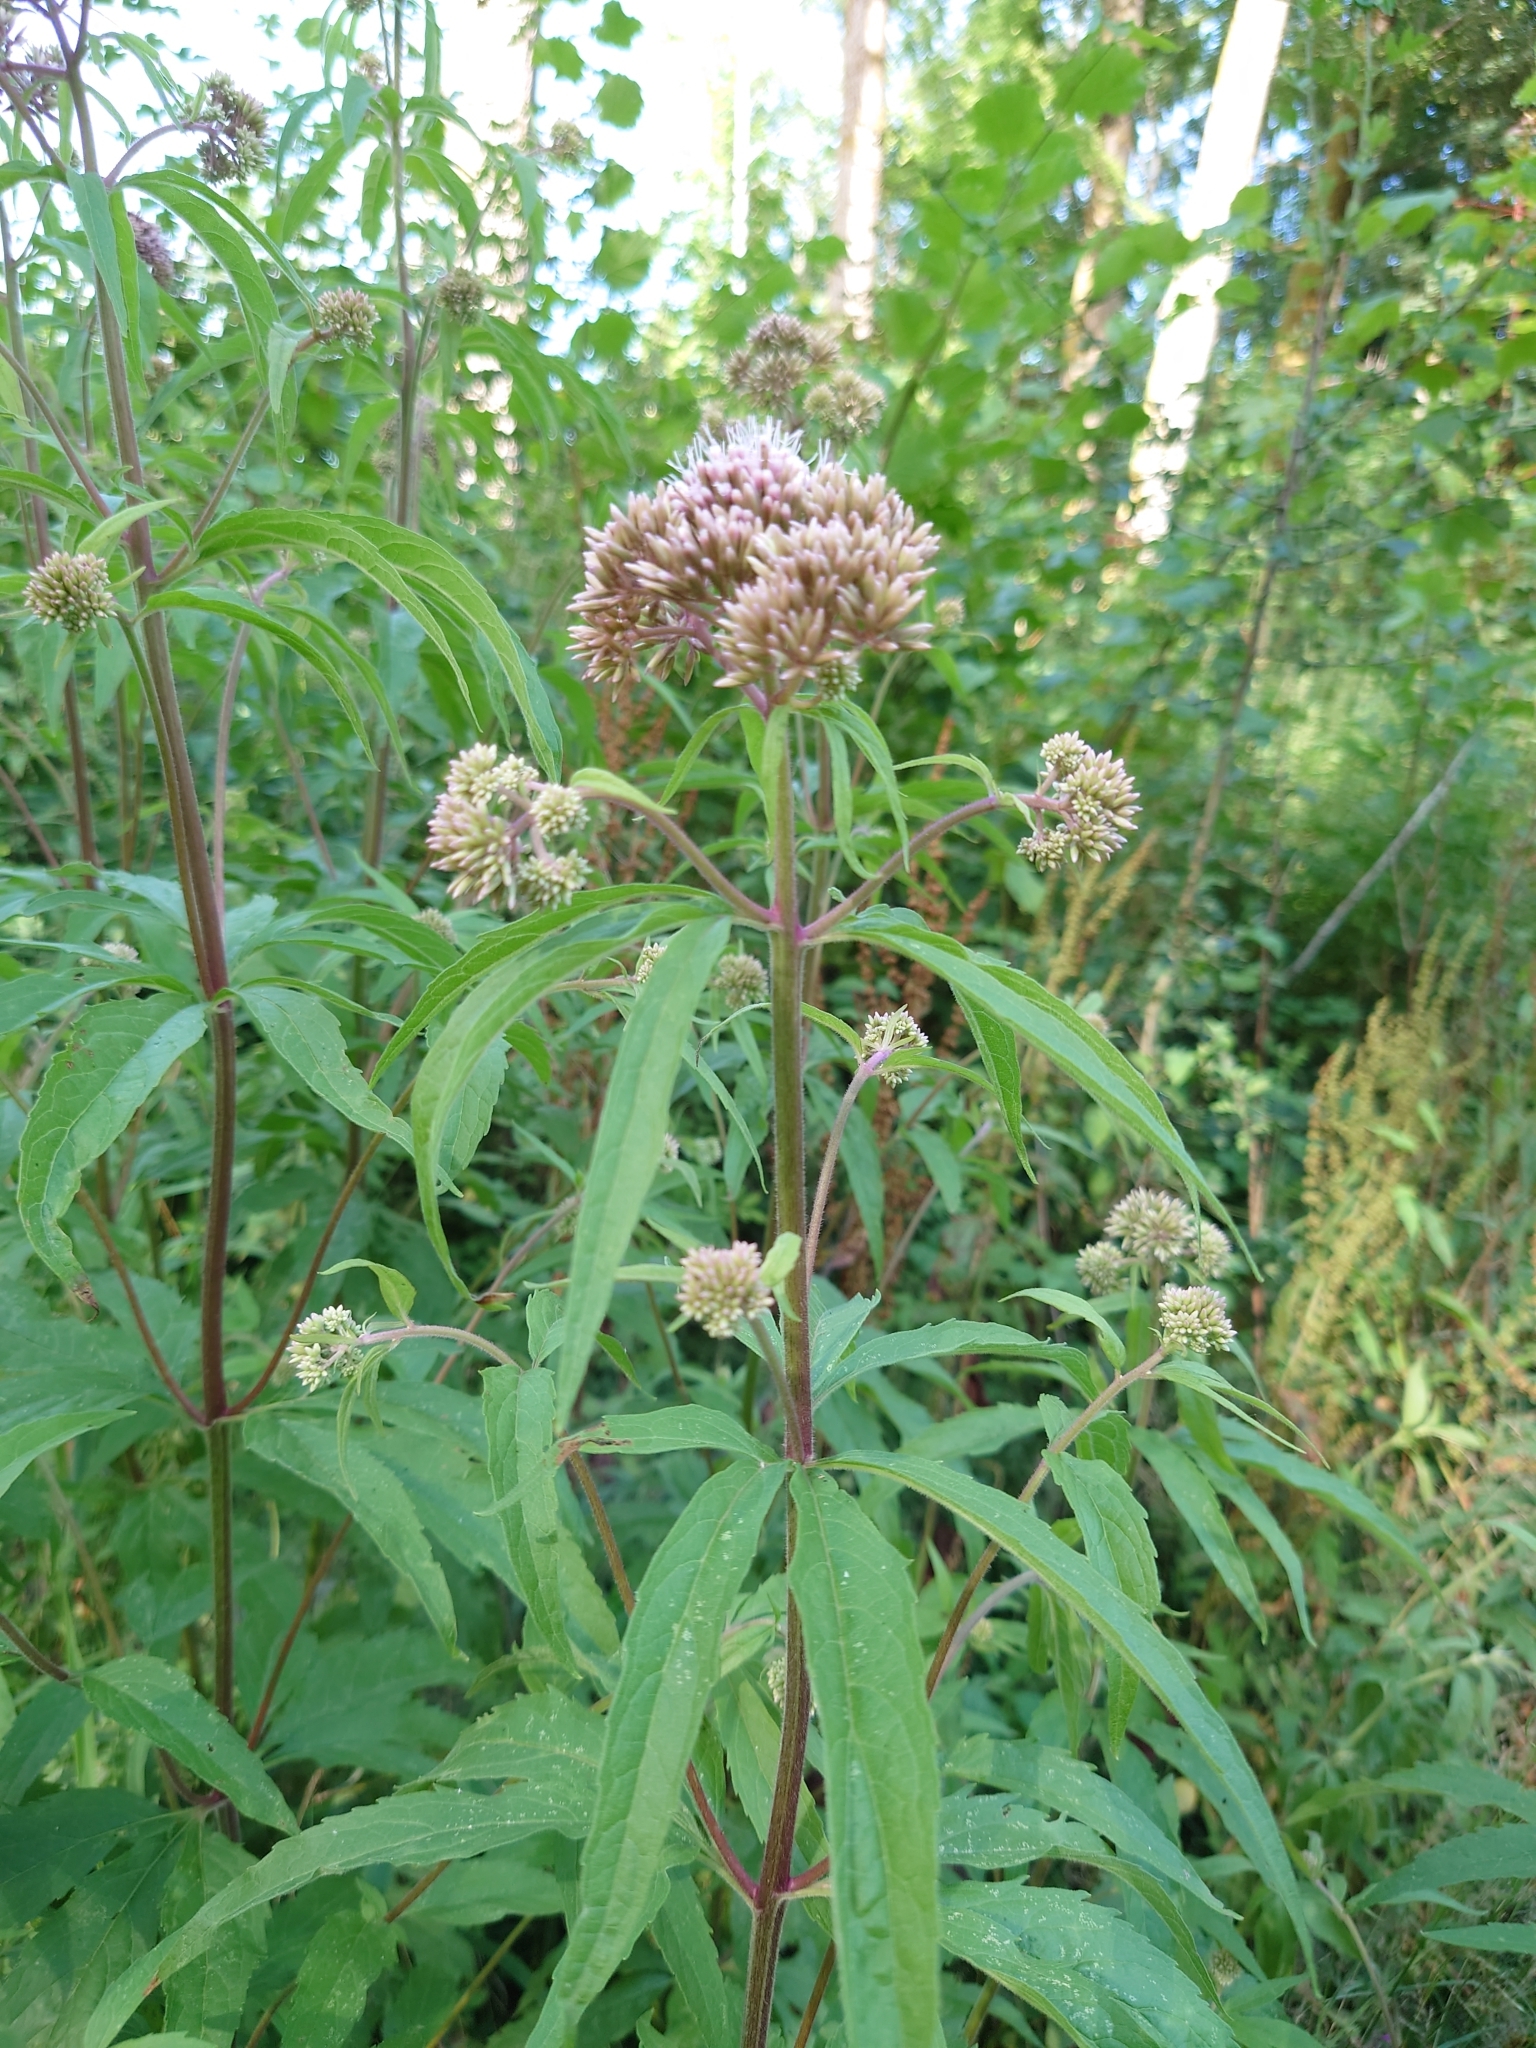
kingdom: Plantae
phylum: Tracheophyta
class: Magnoliopsida
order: Asterales
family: Asteraceae
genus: Eupatorium
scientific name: Eupatorium cannabinum
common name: Hemp-agrimony
